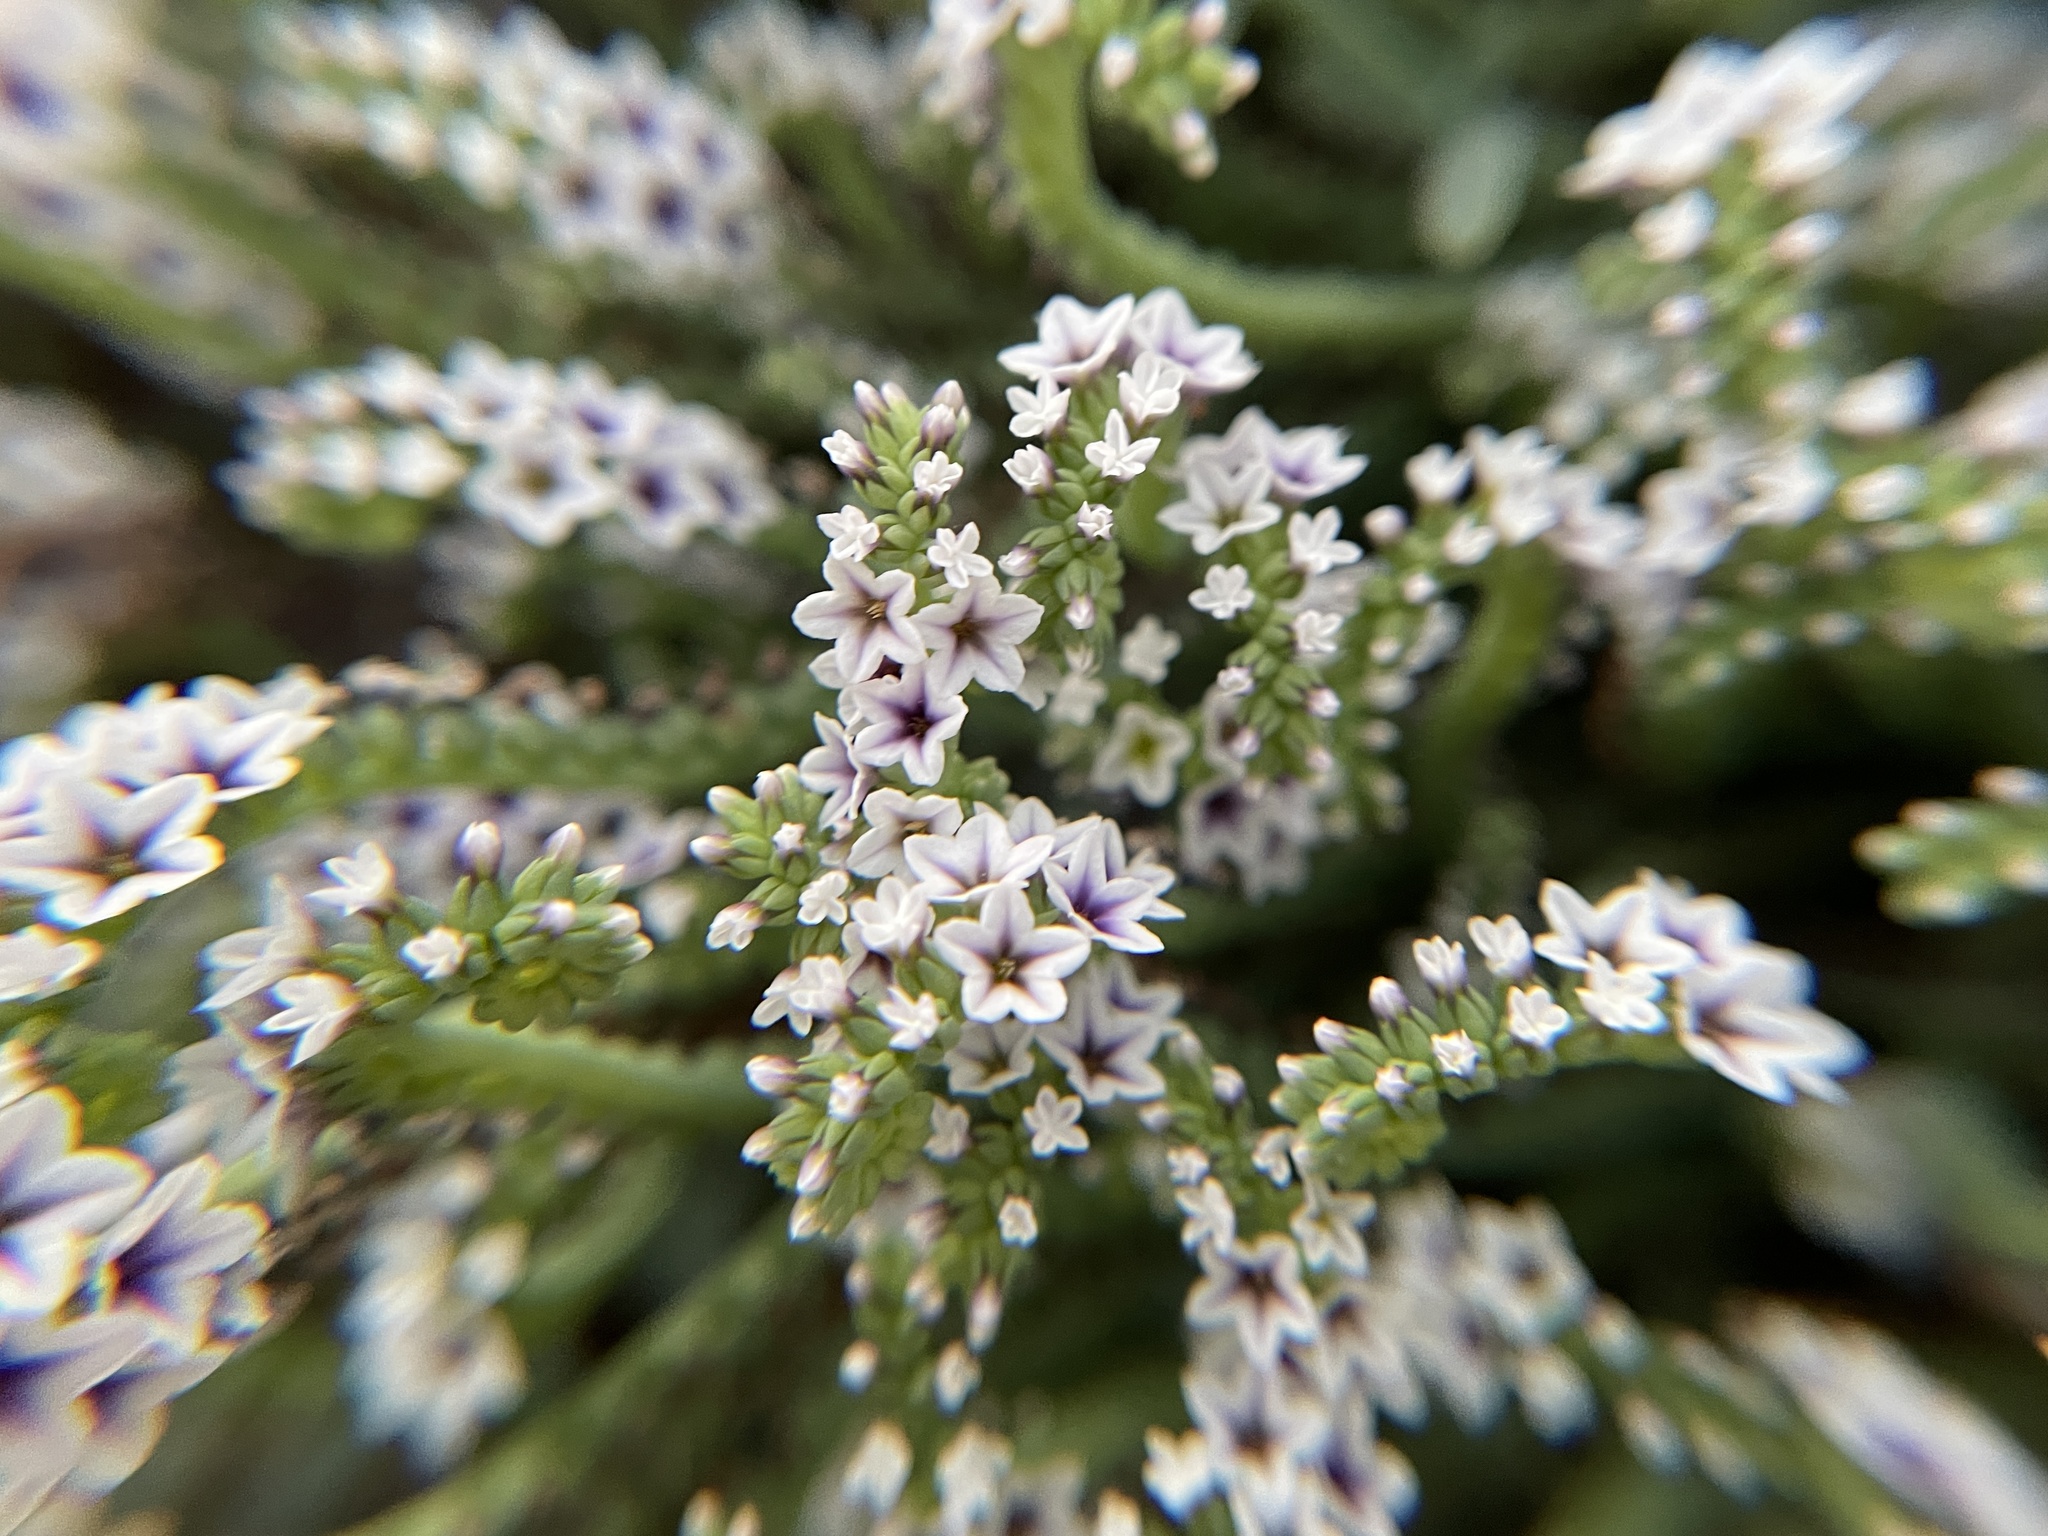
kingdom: Plantae
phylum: Tracheophyta
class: Magnoliopsida
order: Boraginales
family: Heliotropiaceae
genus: Heliotropium
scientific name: Heliotropium curassavicum
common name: Seaside heliotrope
